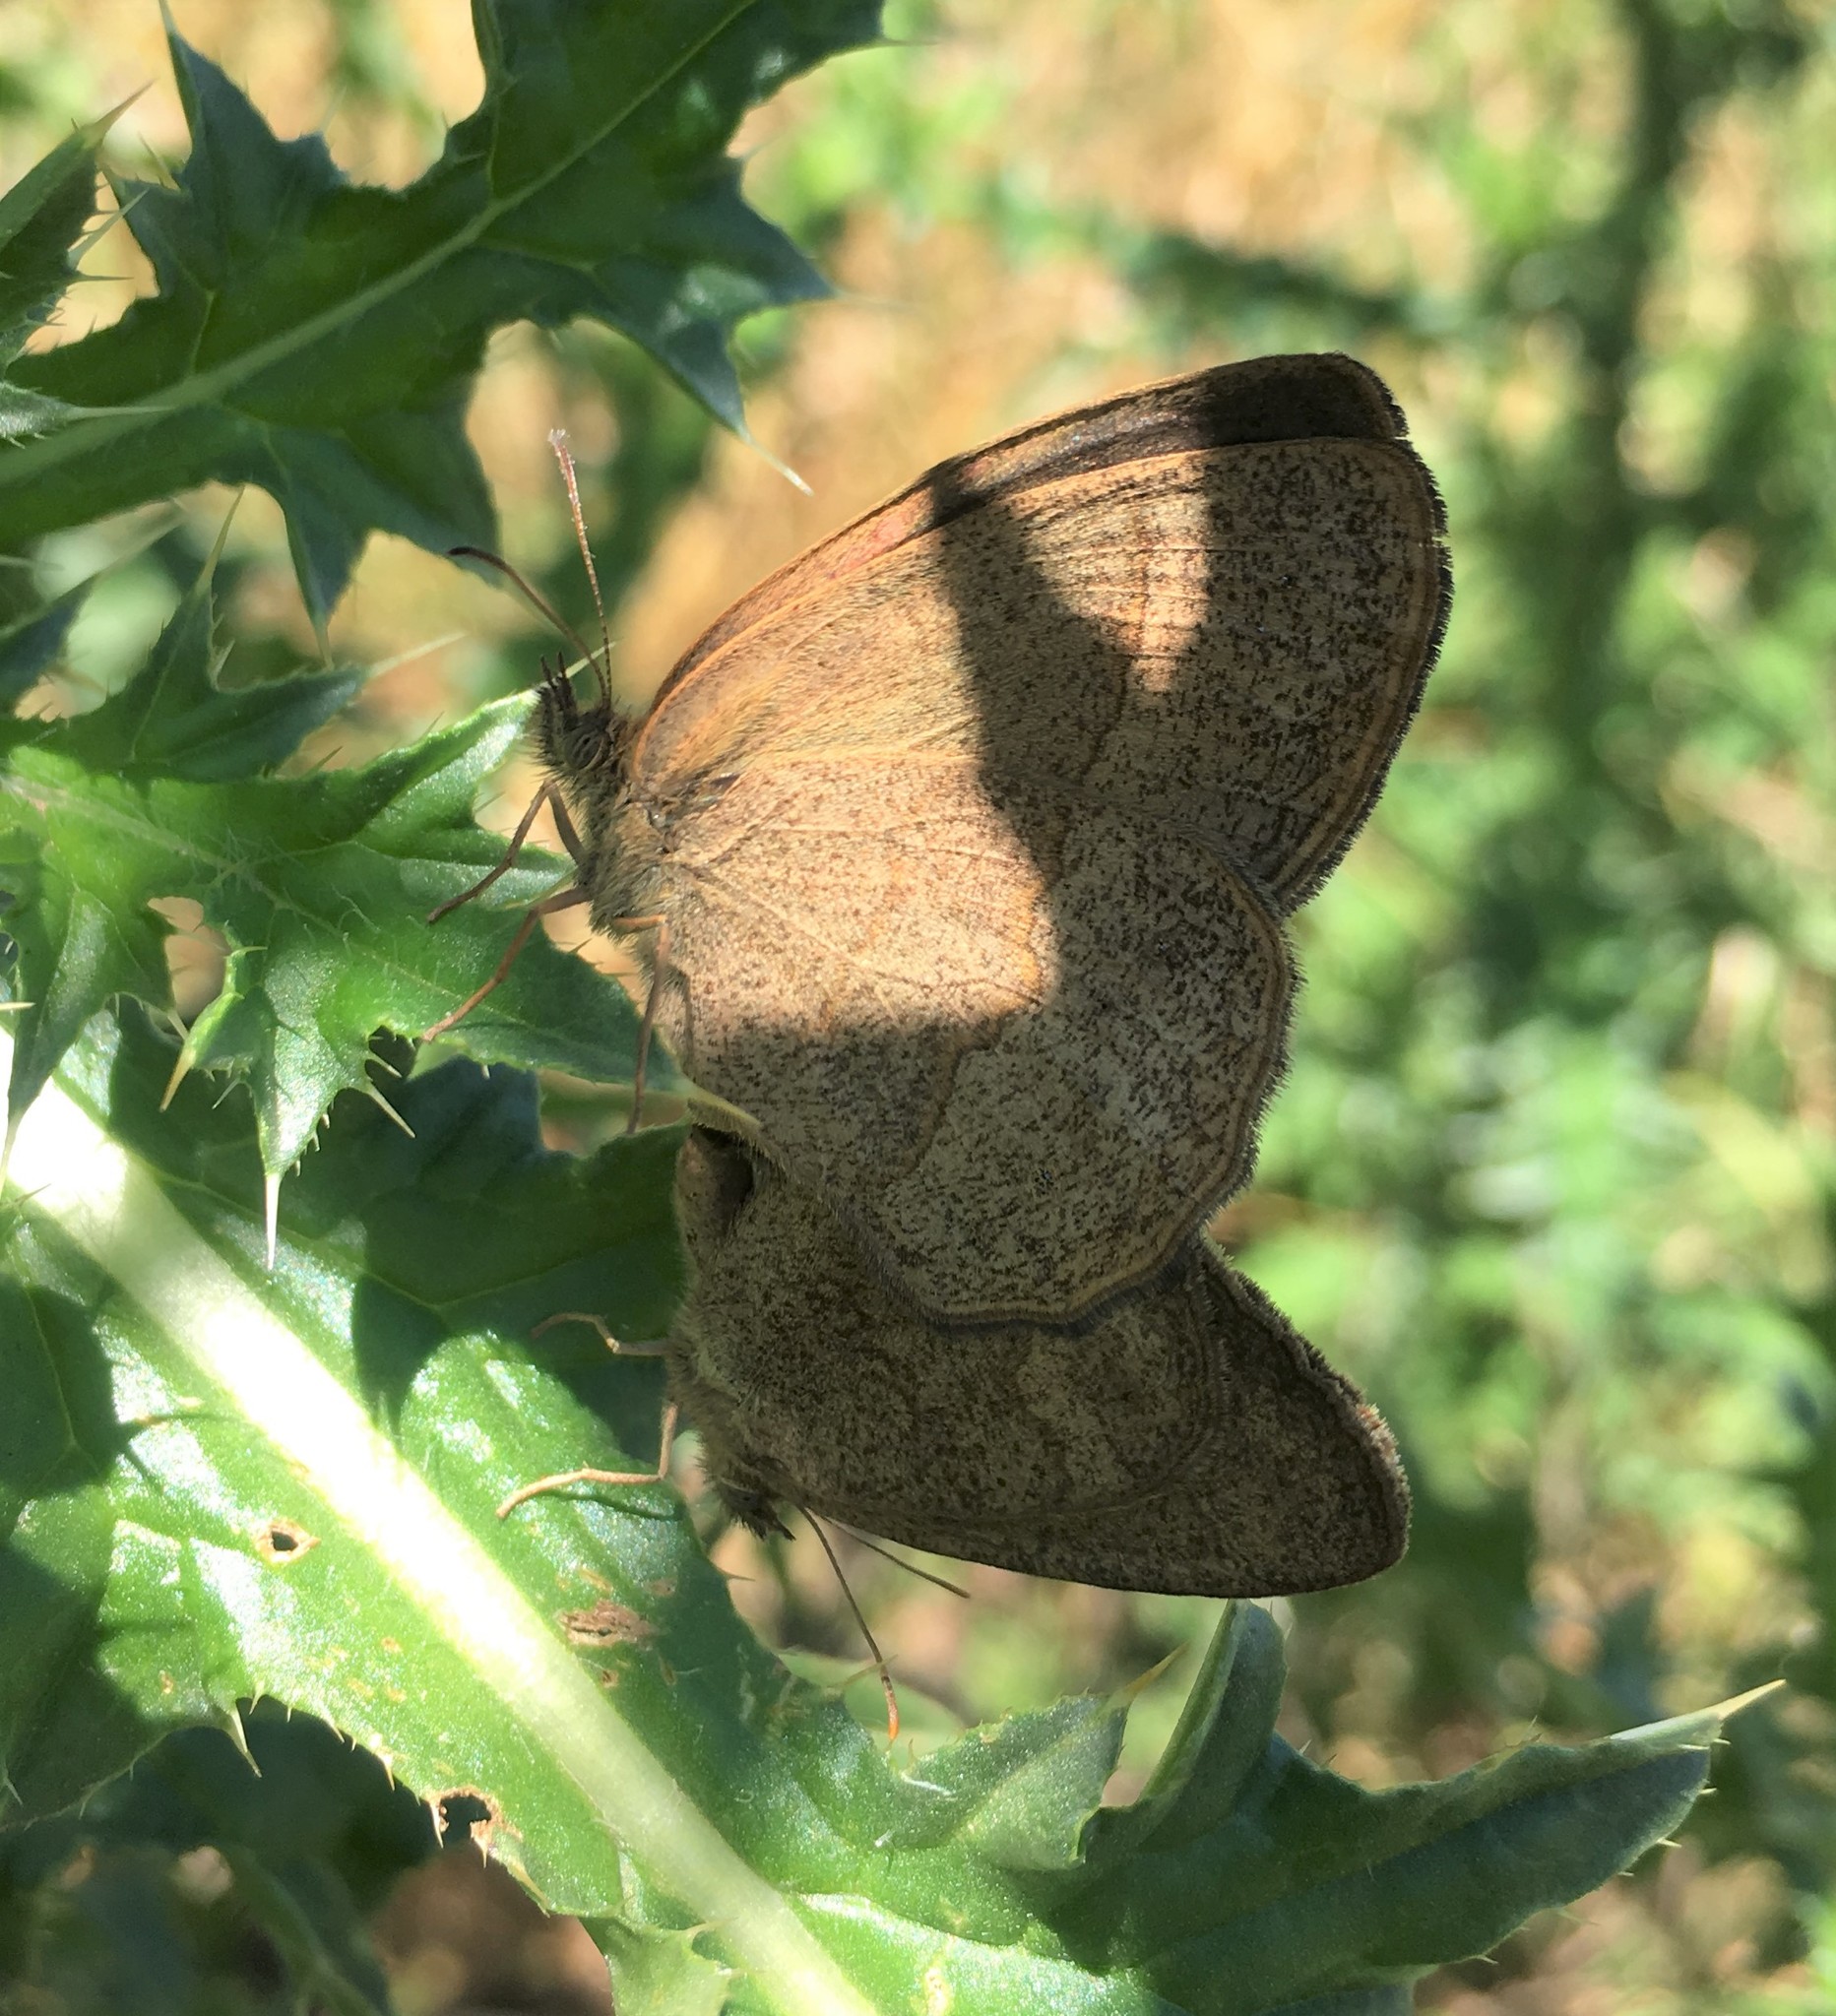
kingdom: Animalia
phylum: Arthropoda
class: Insecta
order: Lepidoptera
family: Nymphalidae
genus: Yphthimoides
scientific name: Yphthimoides celmis
